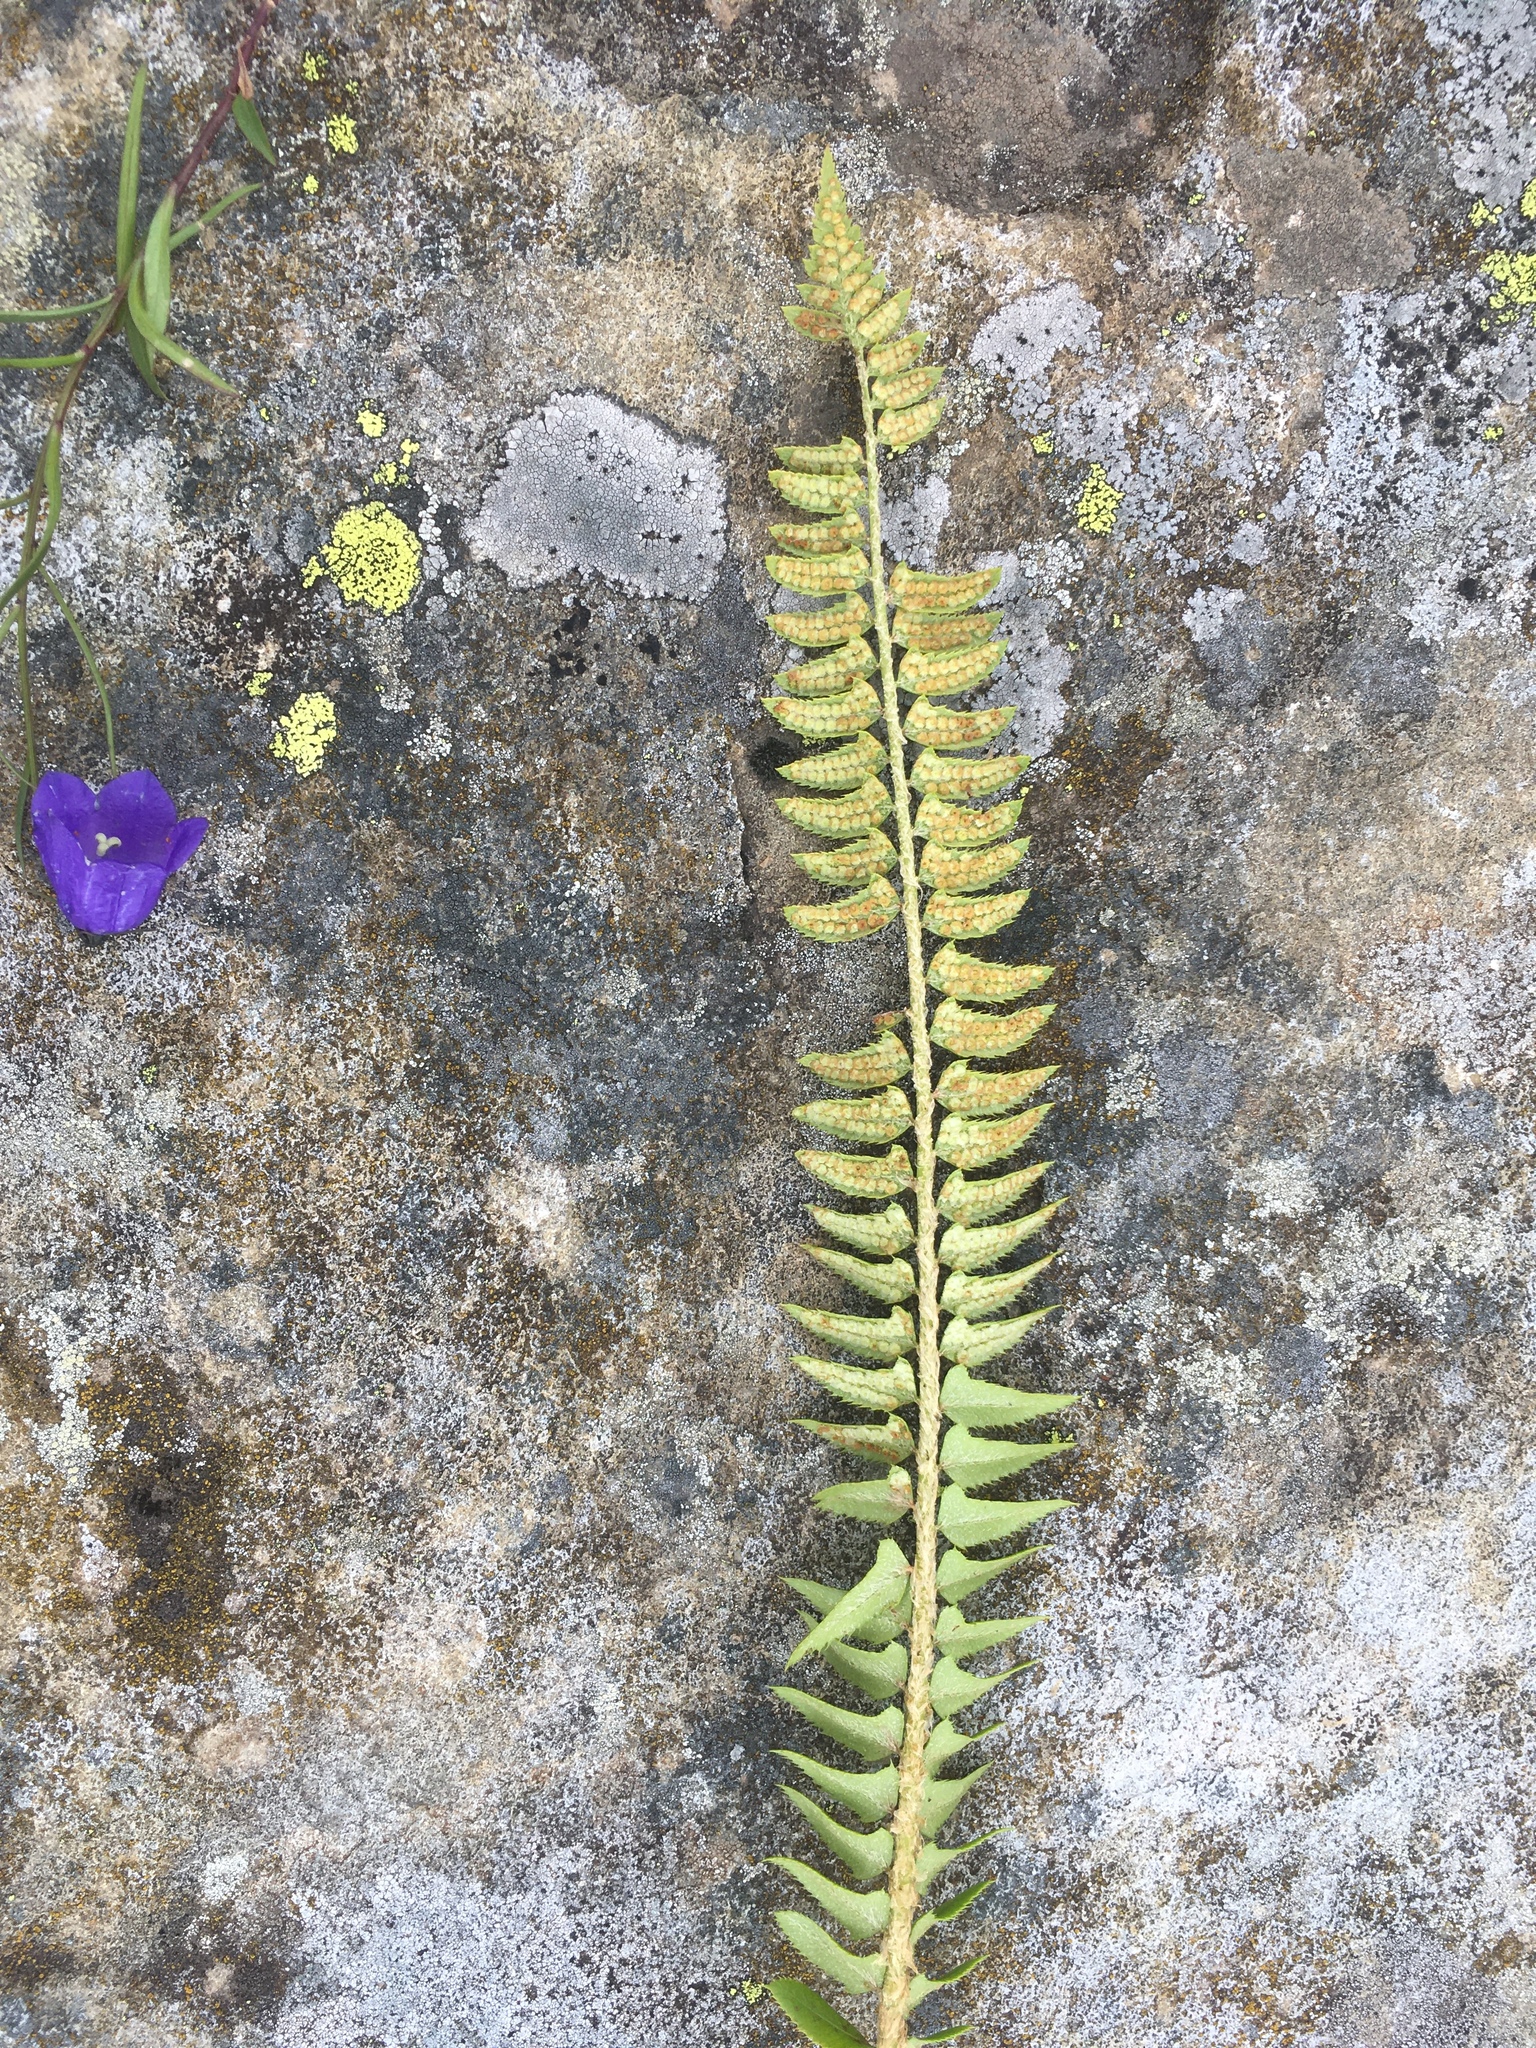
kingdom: Plantae
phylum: Tracheophyta
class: Polypodiopsida
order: Polypodiales
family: Dryopteridaceae
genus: Polystichum
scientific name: Polystichum lonchitis
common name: Holly fern
